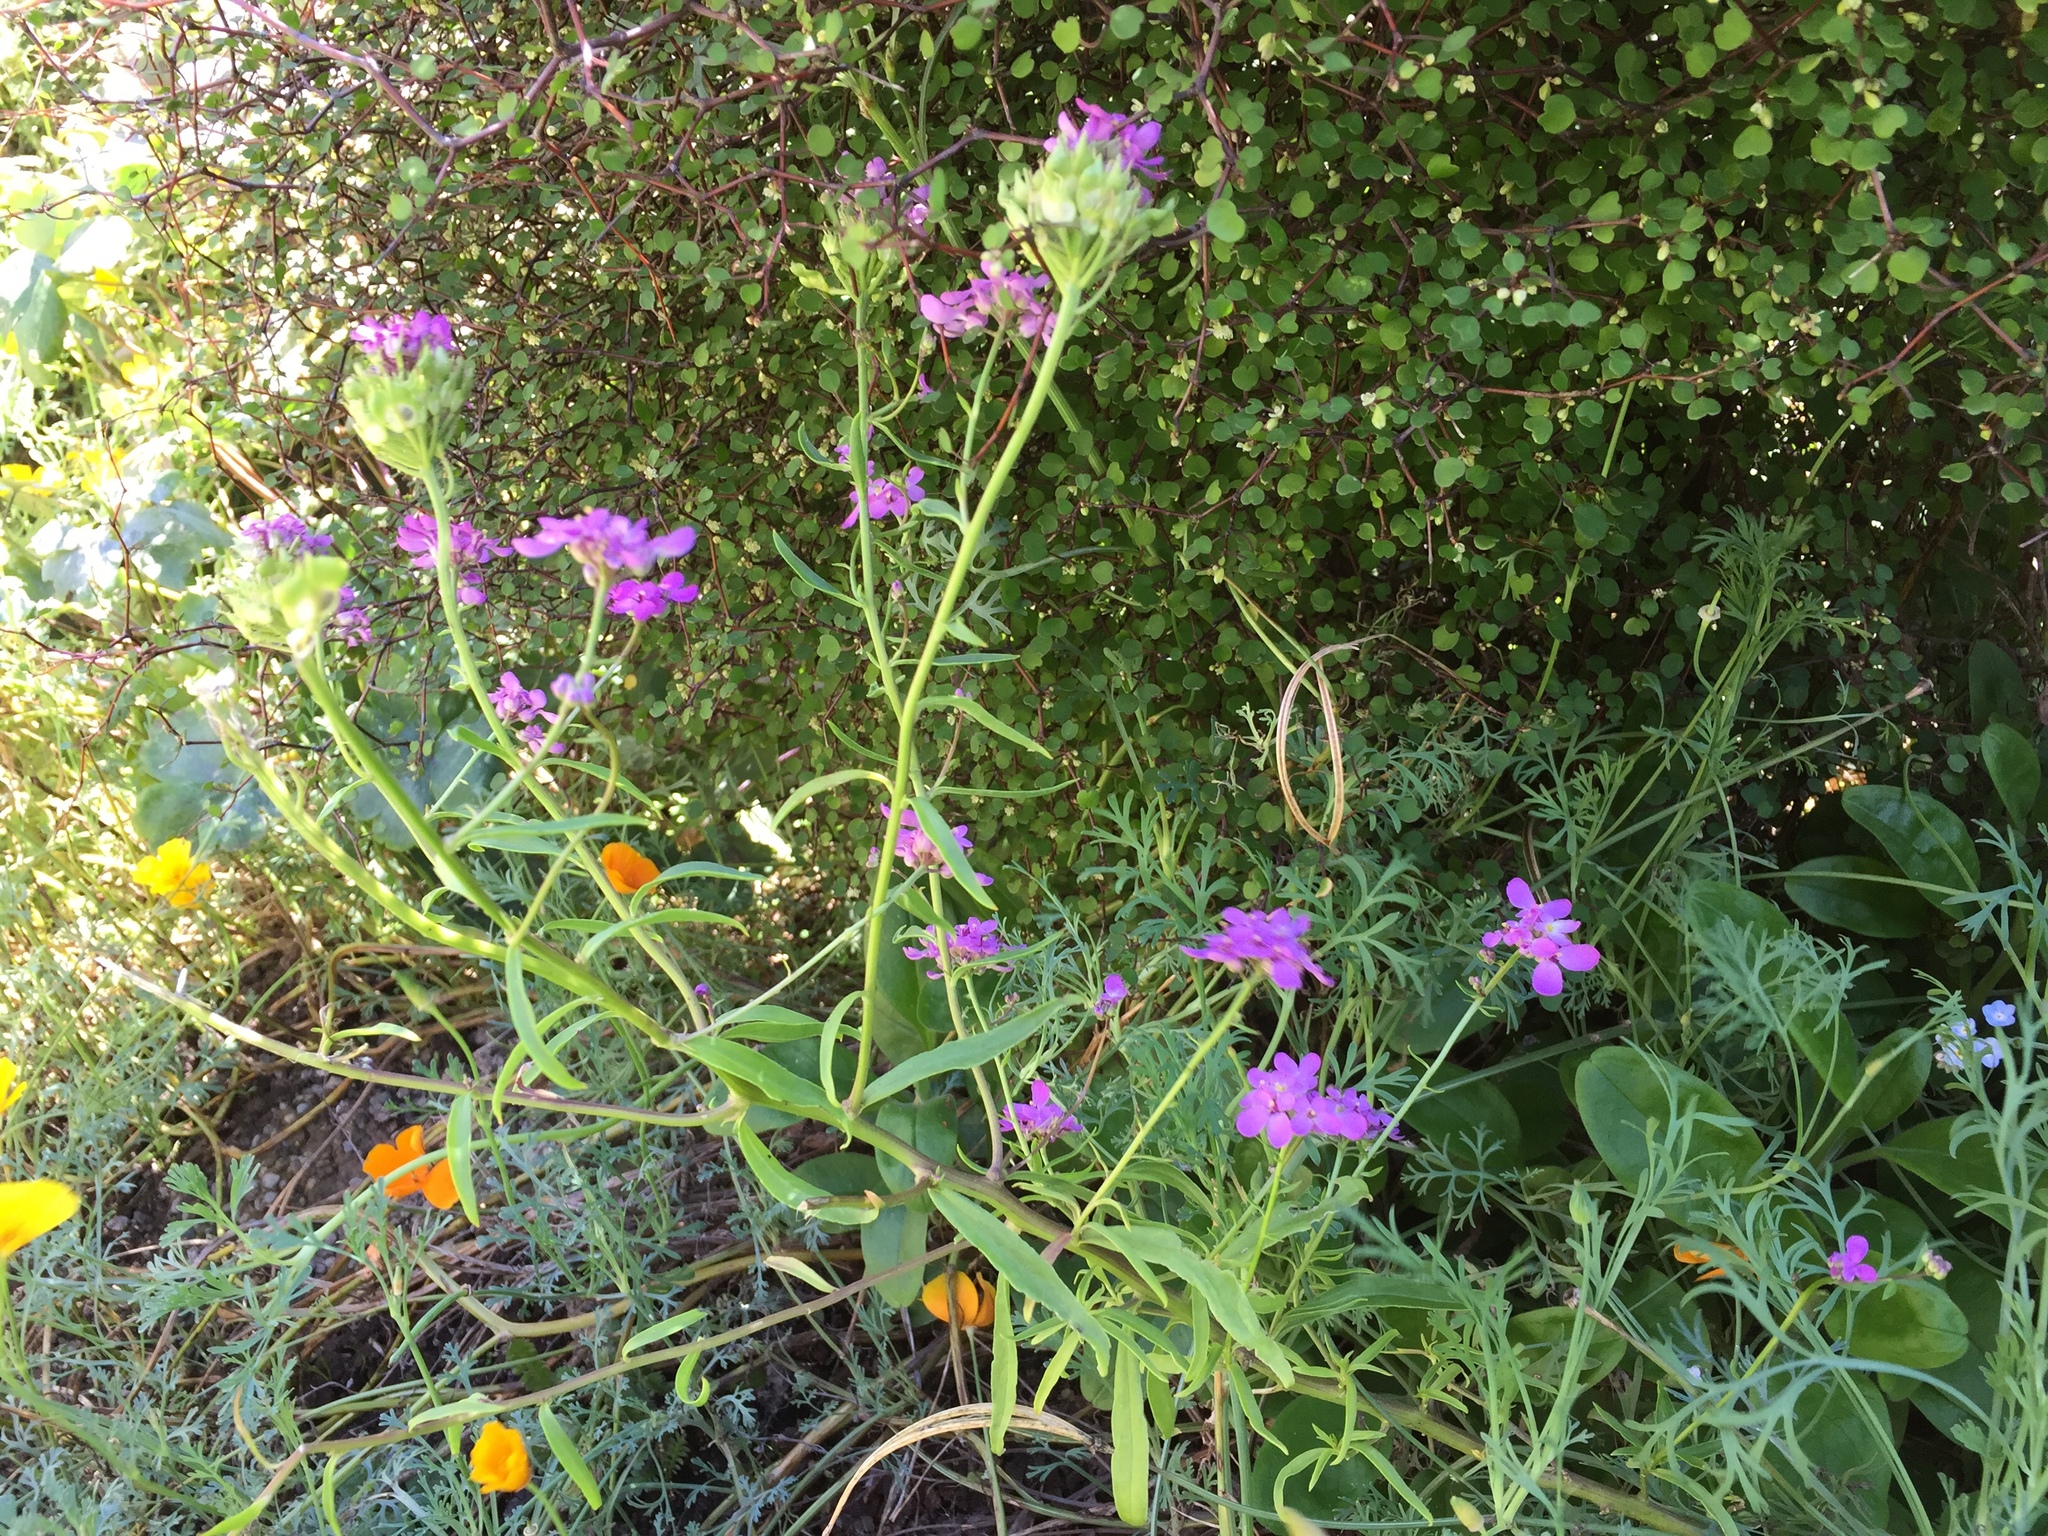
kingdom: Plantae
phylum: Tracheophyta
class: Magnoliopsida
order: Brassicales
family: Brassicaceae
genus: Iberis
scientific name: Iberis umbellata
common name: Globe candytuft
